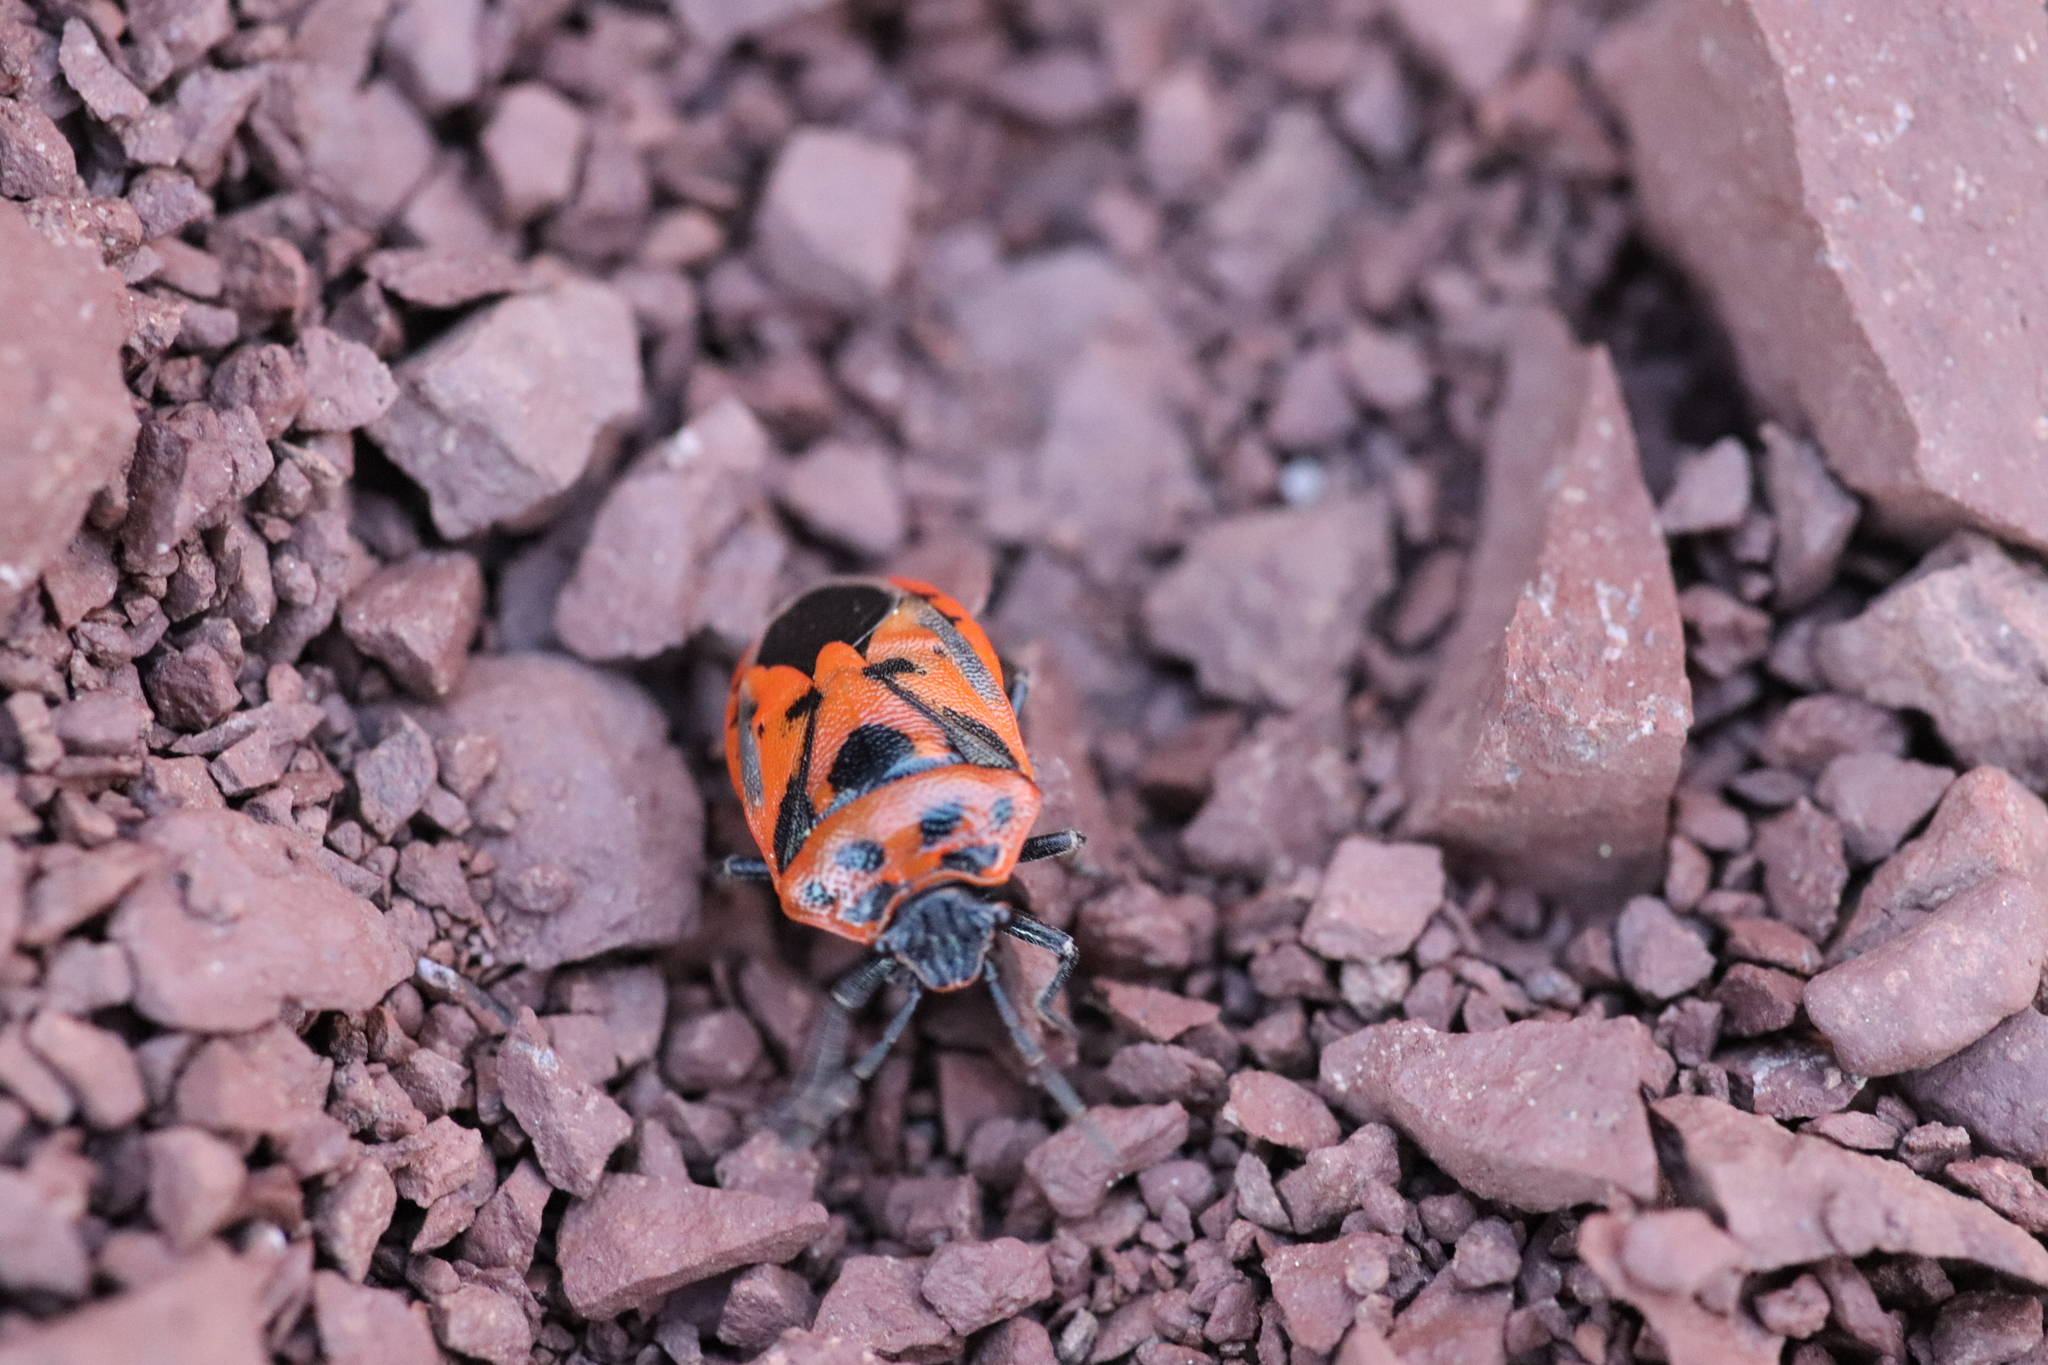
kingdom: Animalia
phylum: Arthropoda
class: Insecta
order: Hemiptera
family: Pentatomidae
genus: Eurydema
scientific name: Eurydema ornata
